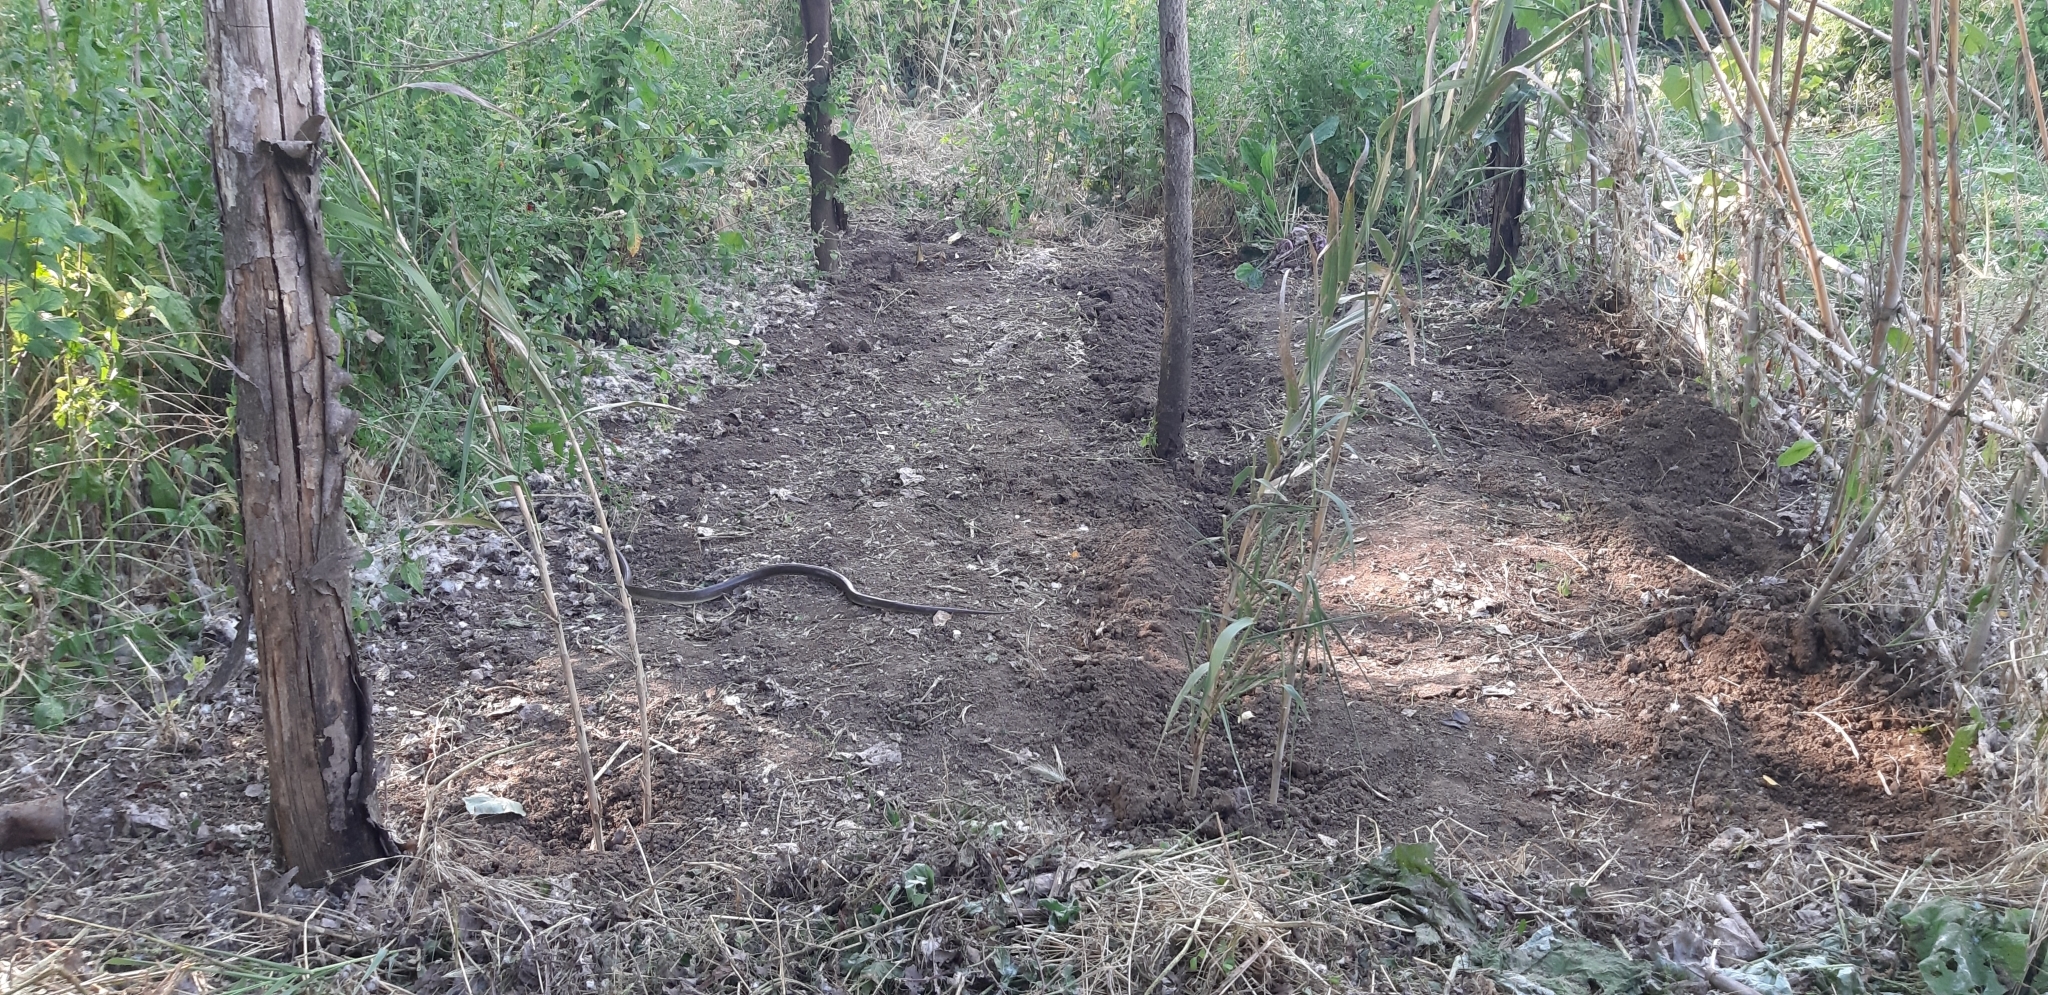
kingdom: Animalia
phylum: Chordata
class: Squamata
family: Colubridae
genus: Zamenis
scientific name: Zamenis longissimus
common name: Aesculapean snake
